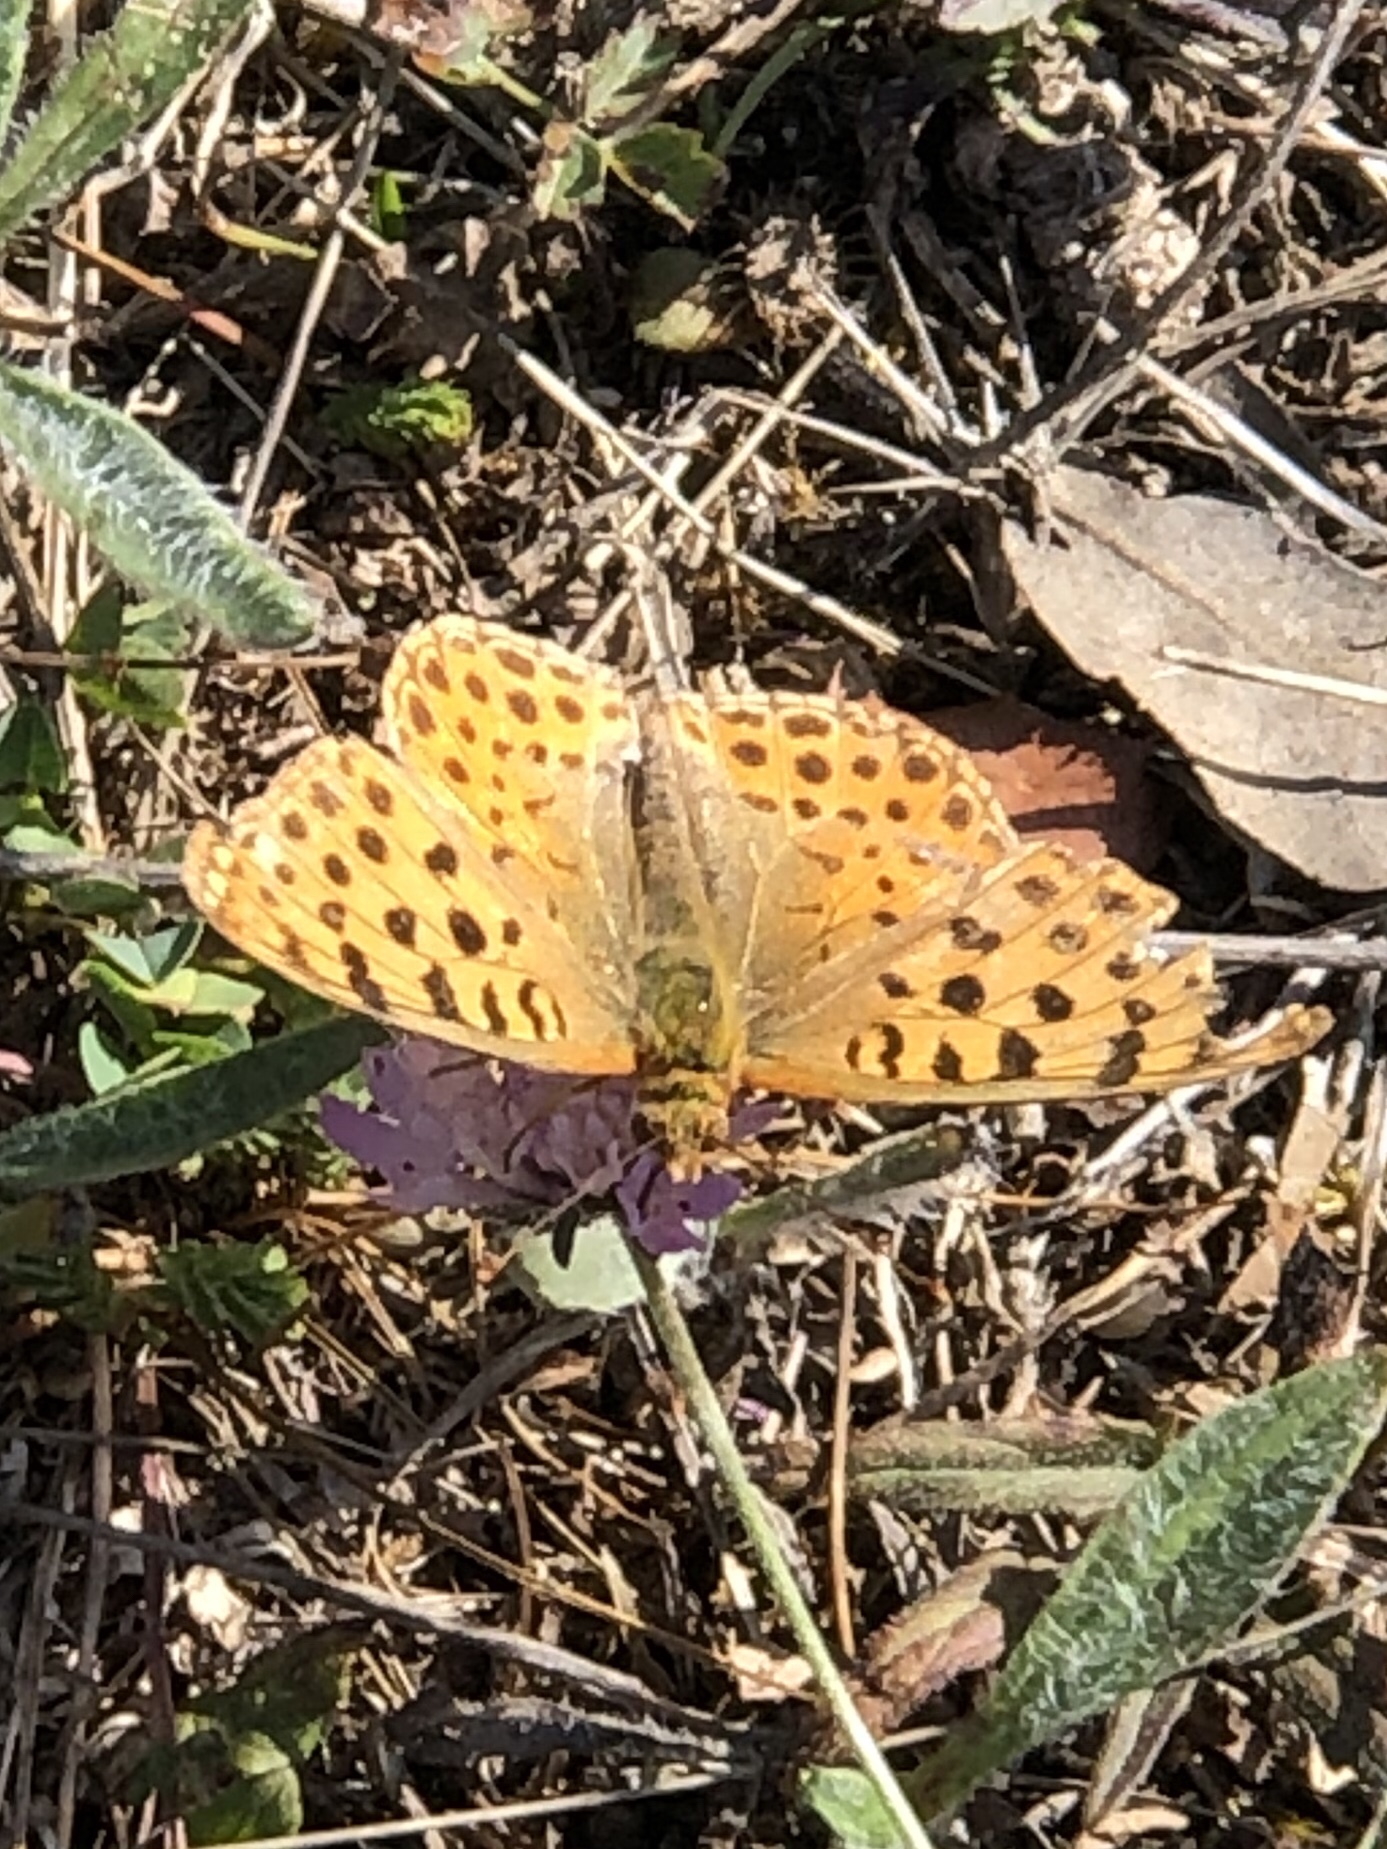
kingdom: Animalia
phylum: Arthropoda
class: Insecta
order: Lepidoptera
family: Nymphalidae
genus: Issoria
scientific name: Issoria lathonia
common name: Queen of spain fritillary
